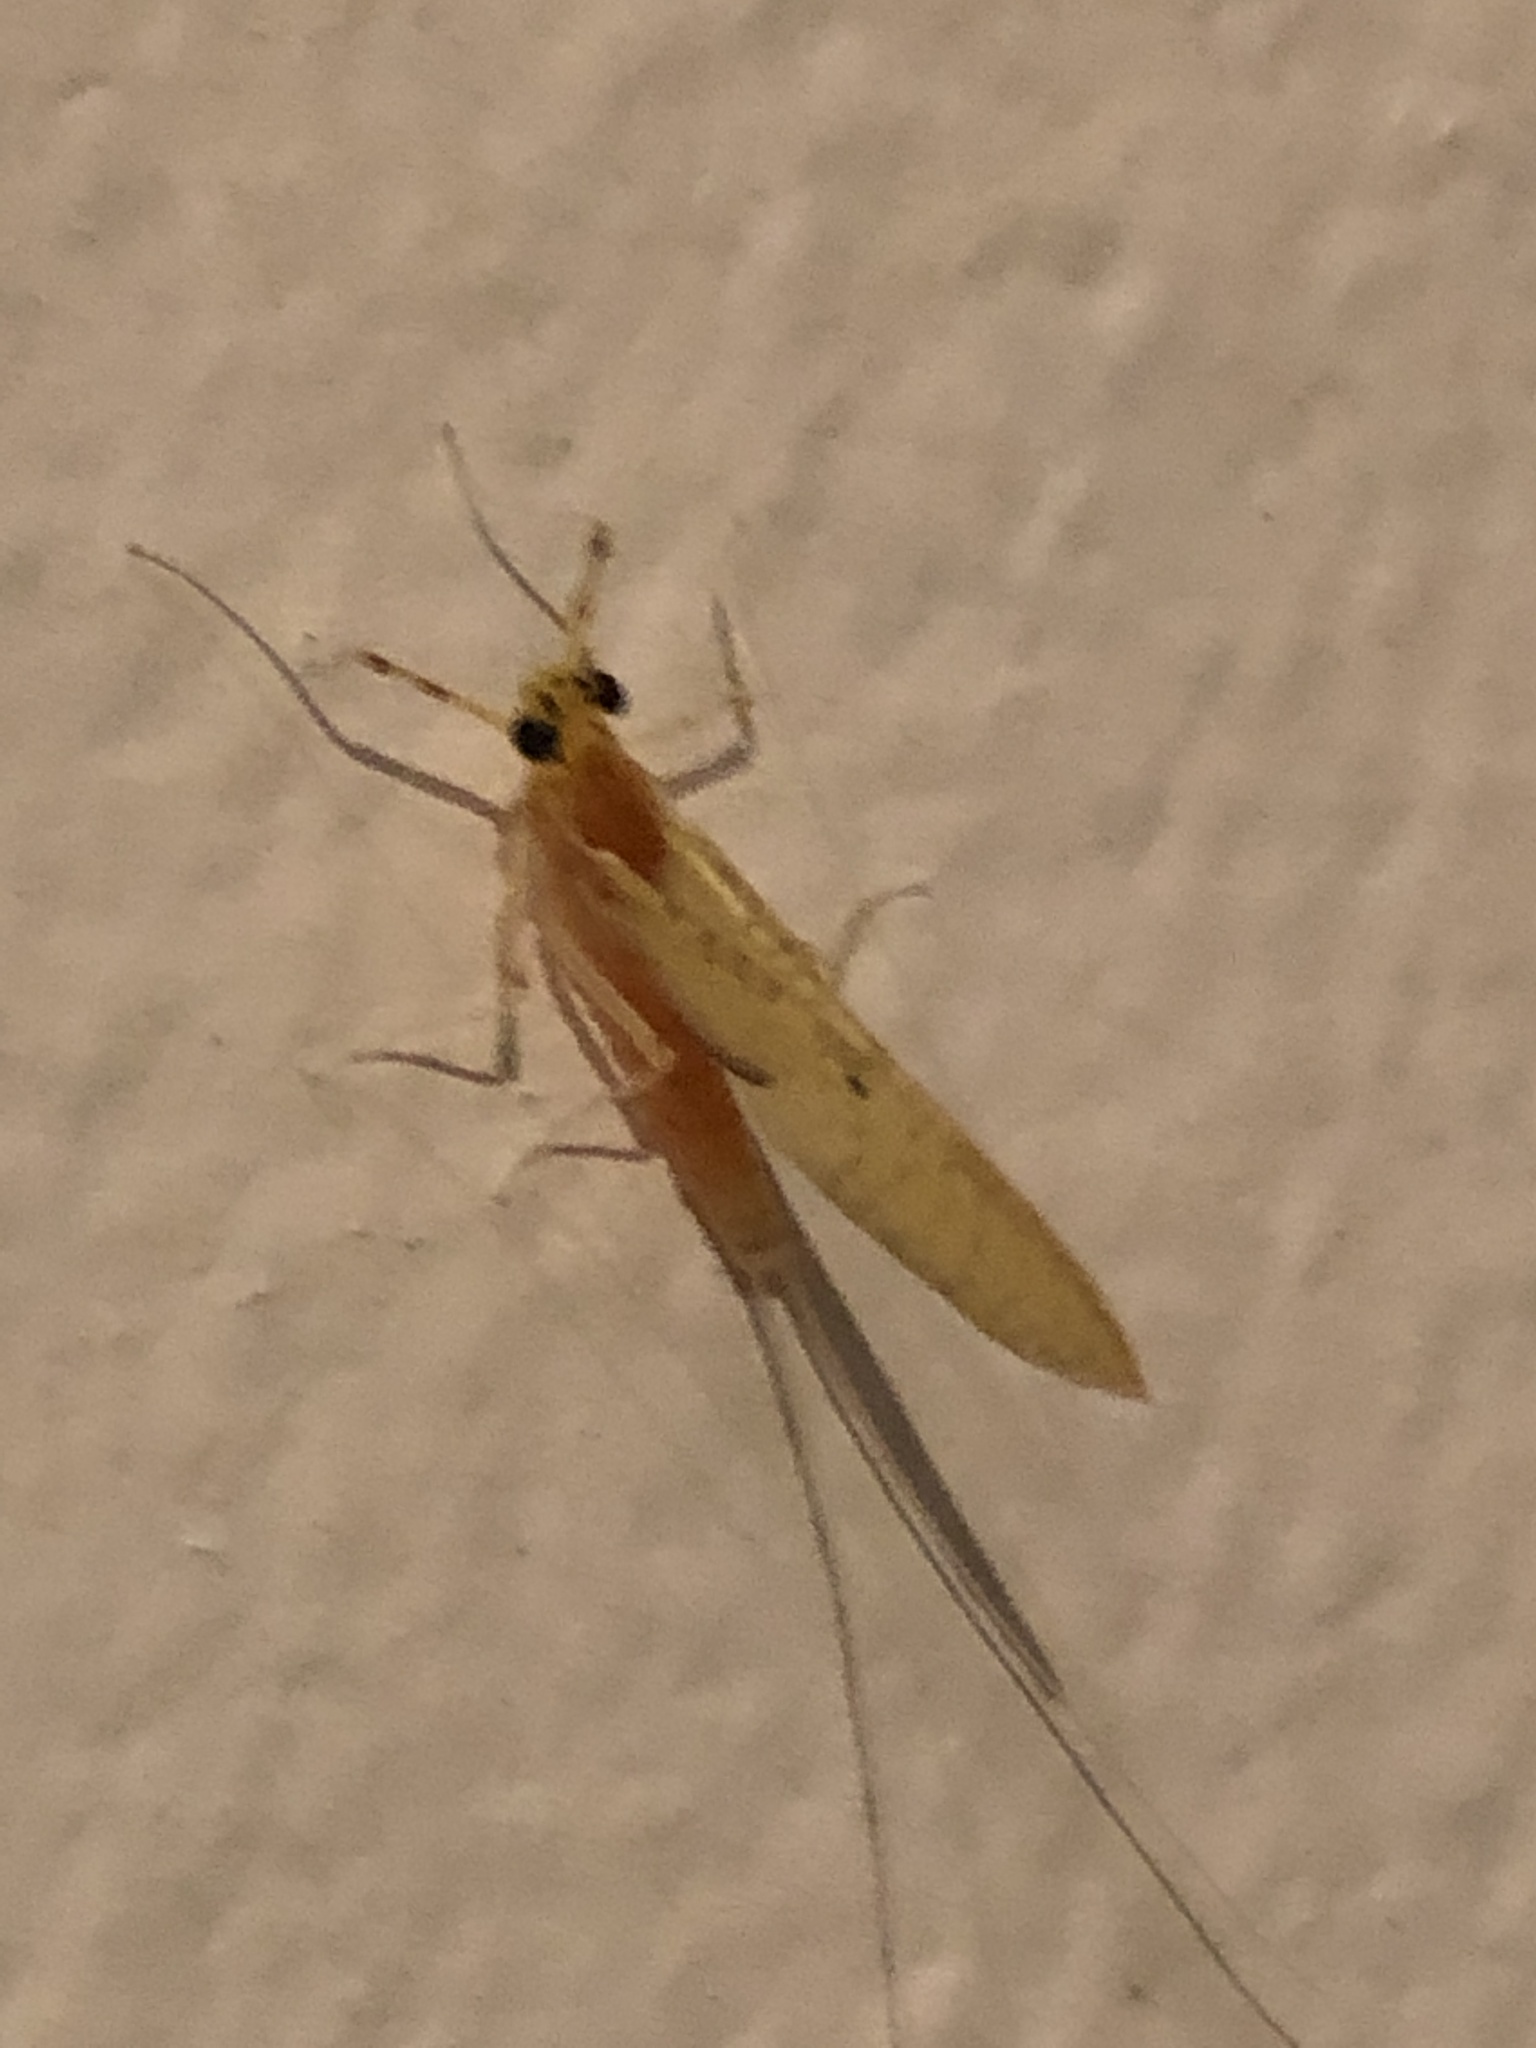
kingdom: Animalia
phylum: Arthropoda
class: Insecta
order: Ephemeroptera
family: Heptageniidae
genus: Stenacron
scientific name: Stenacron interpunctatum
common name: Orange cahill
